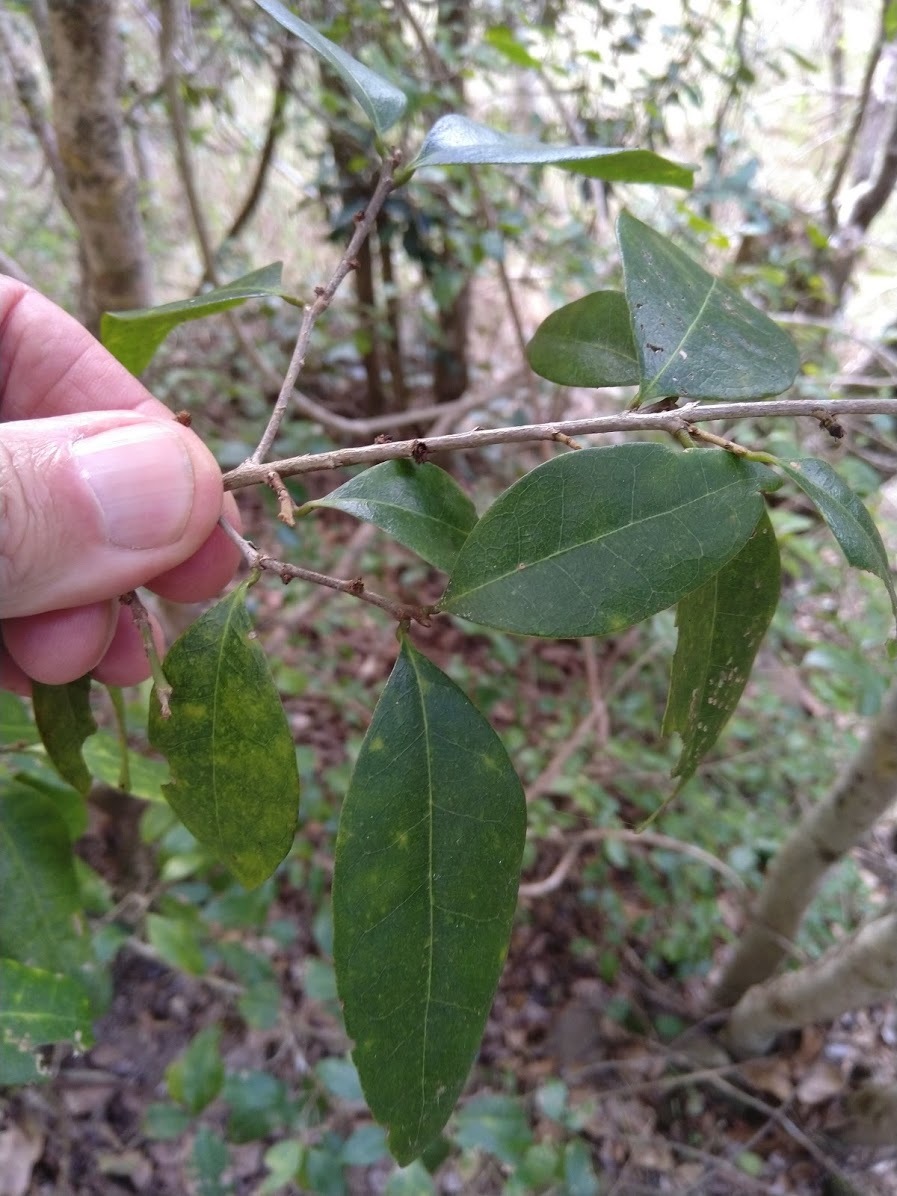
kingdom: Plantae
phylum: Tracheophyta
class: Magnoliopsida
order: Malpighiales
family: Phyllanthaceae
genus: Cleistanthus
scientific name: Cleistanthus cunninghamii
